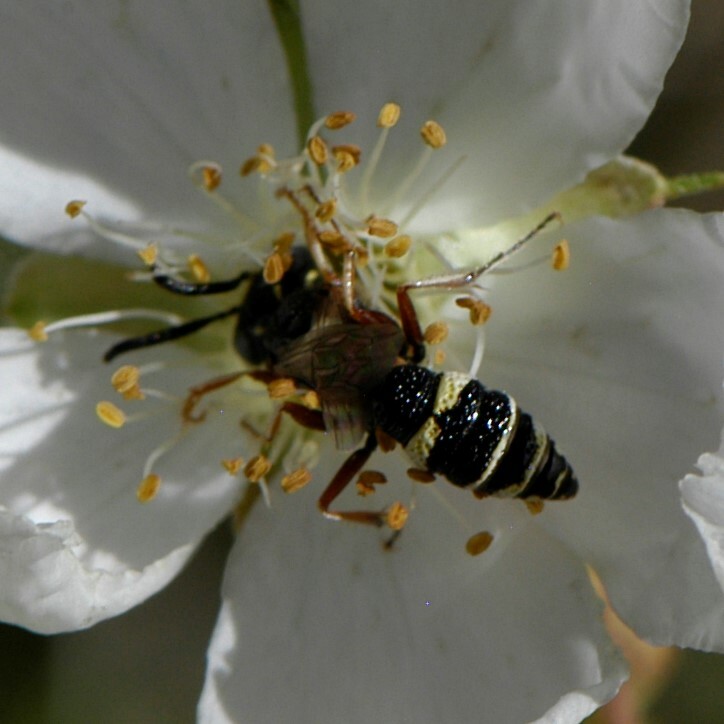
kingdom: Animalia
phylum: Arthropoda
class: Insecta
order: Hymenoptera
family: Crabronidae
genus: Philanthus
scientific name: Philanthus gibbosus
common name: Humped beewolf
